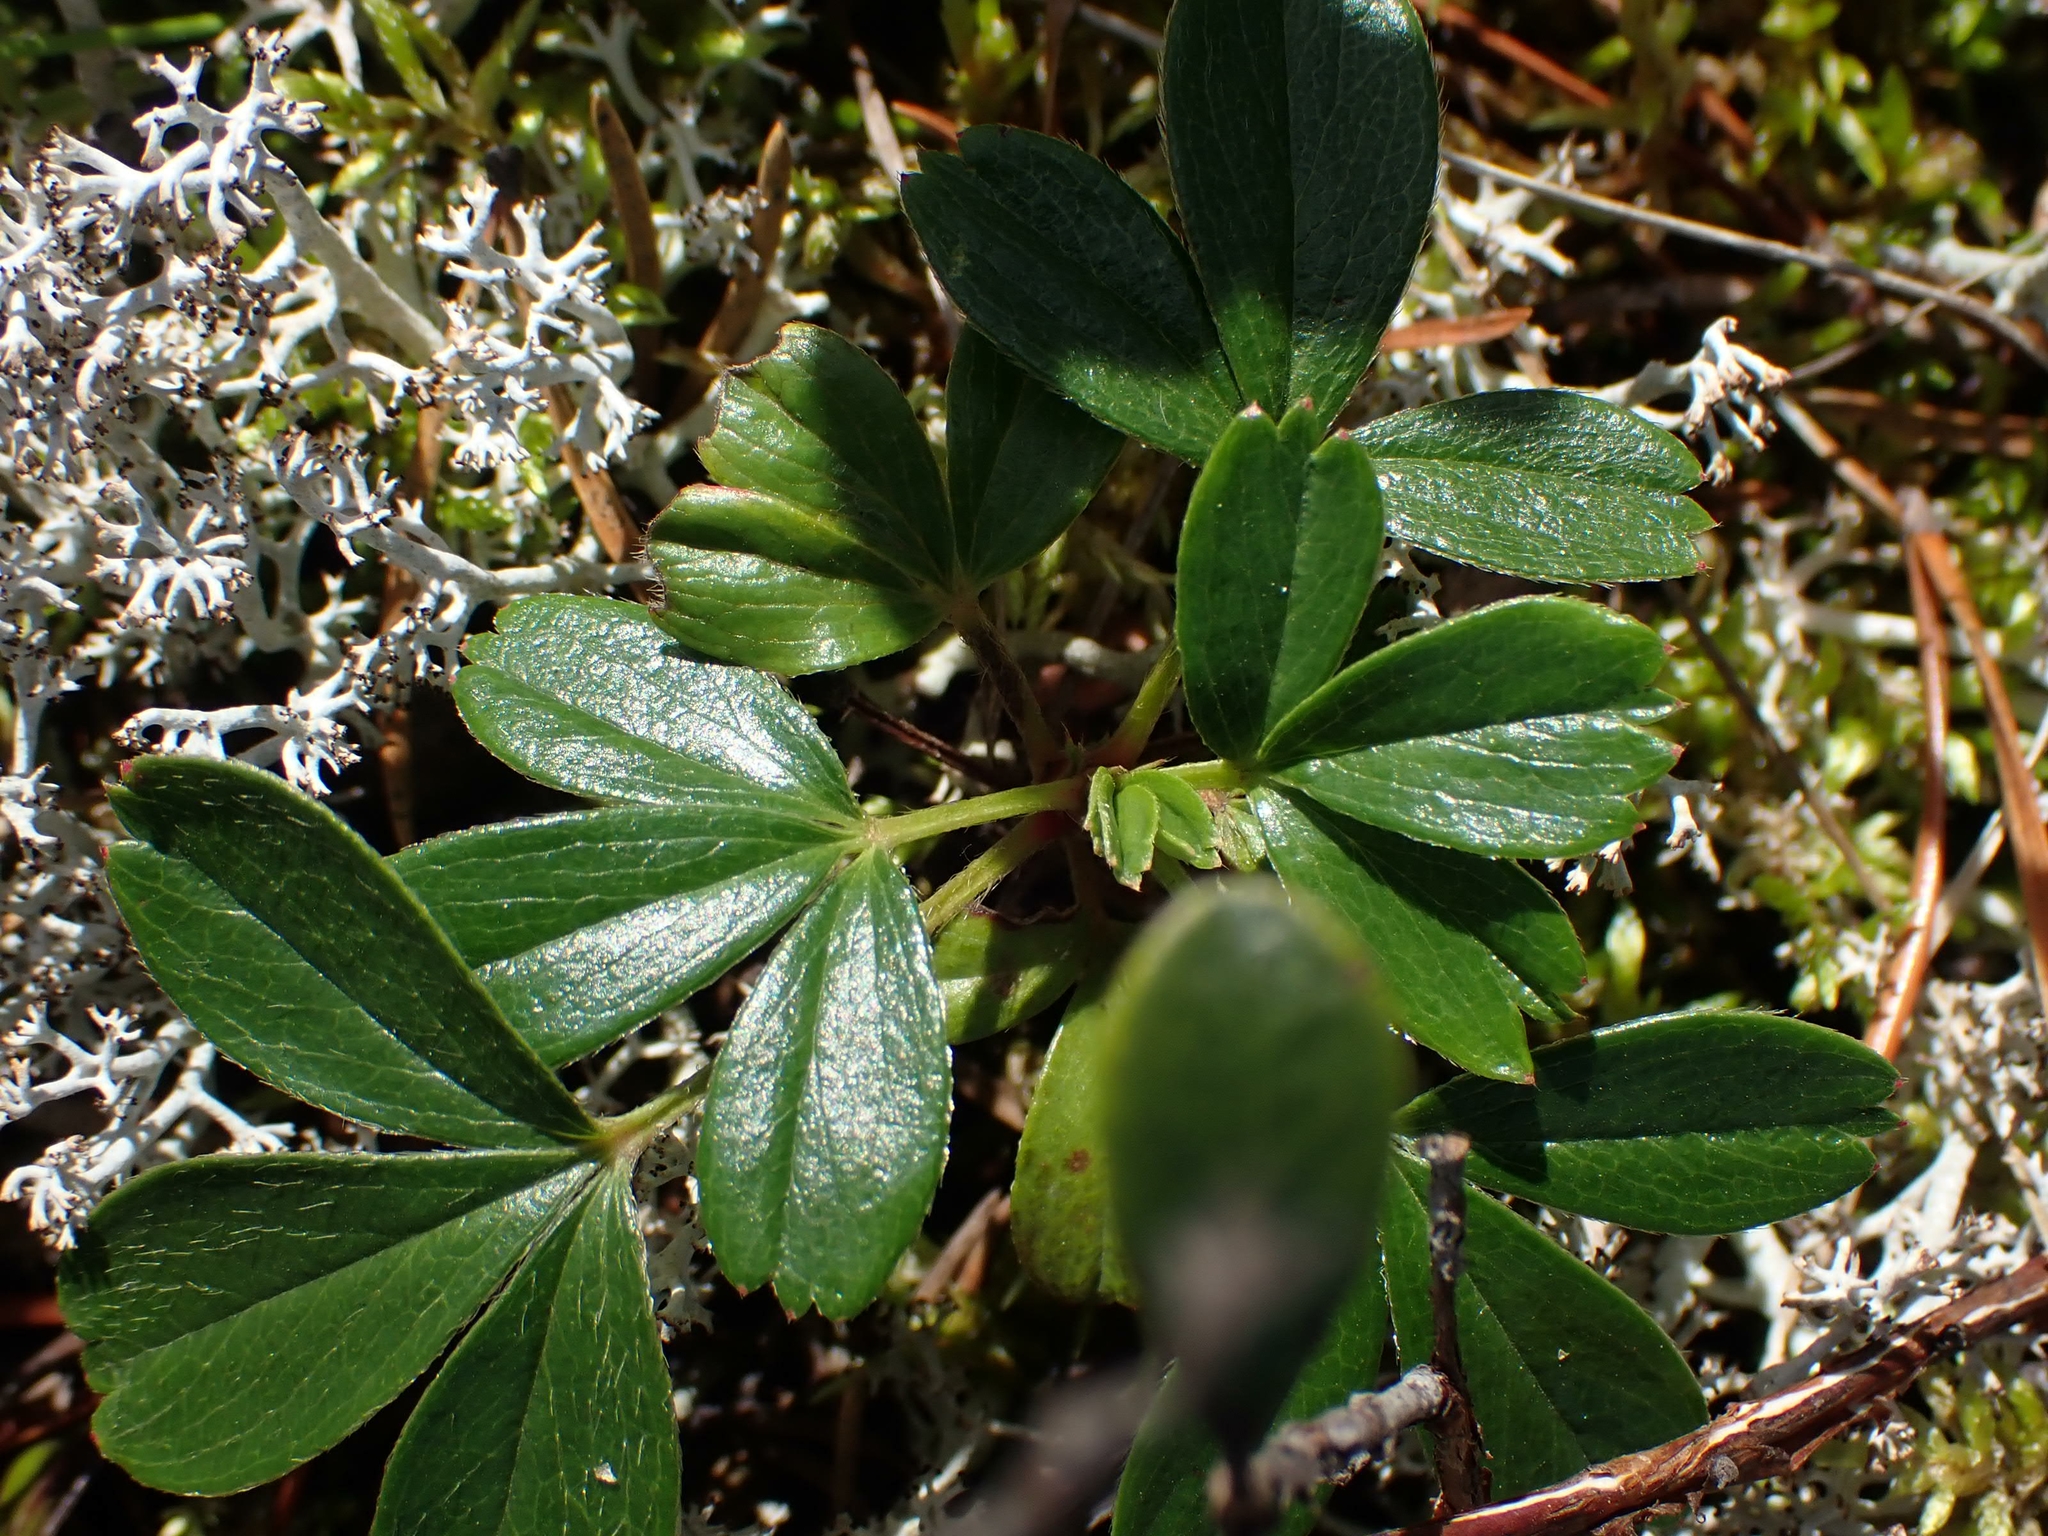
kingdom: Plantae
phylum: Tracheophyta
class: Magnoliopsida
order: Rosales
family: Rosaceae
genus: Sibbaldia
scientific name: Sibbaldia tridentata
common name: Three-toothed cinquefoil
